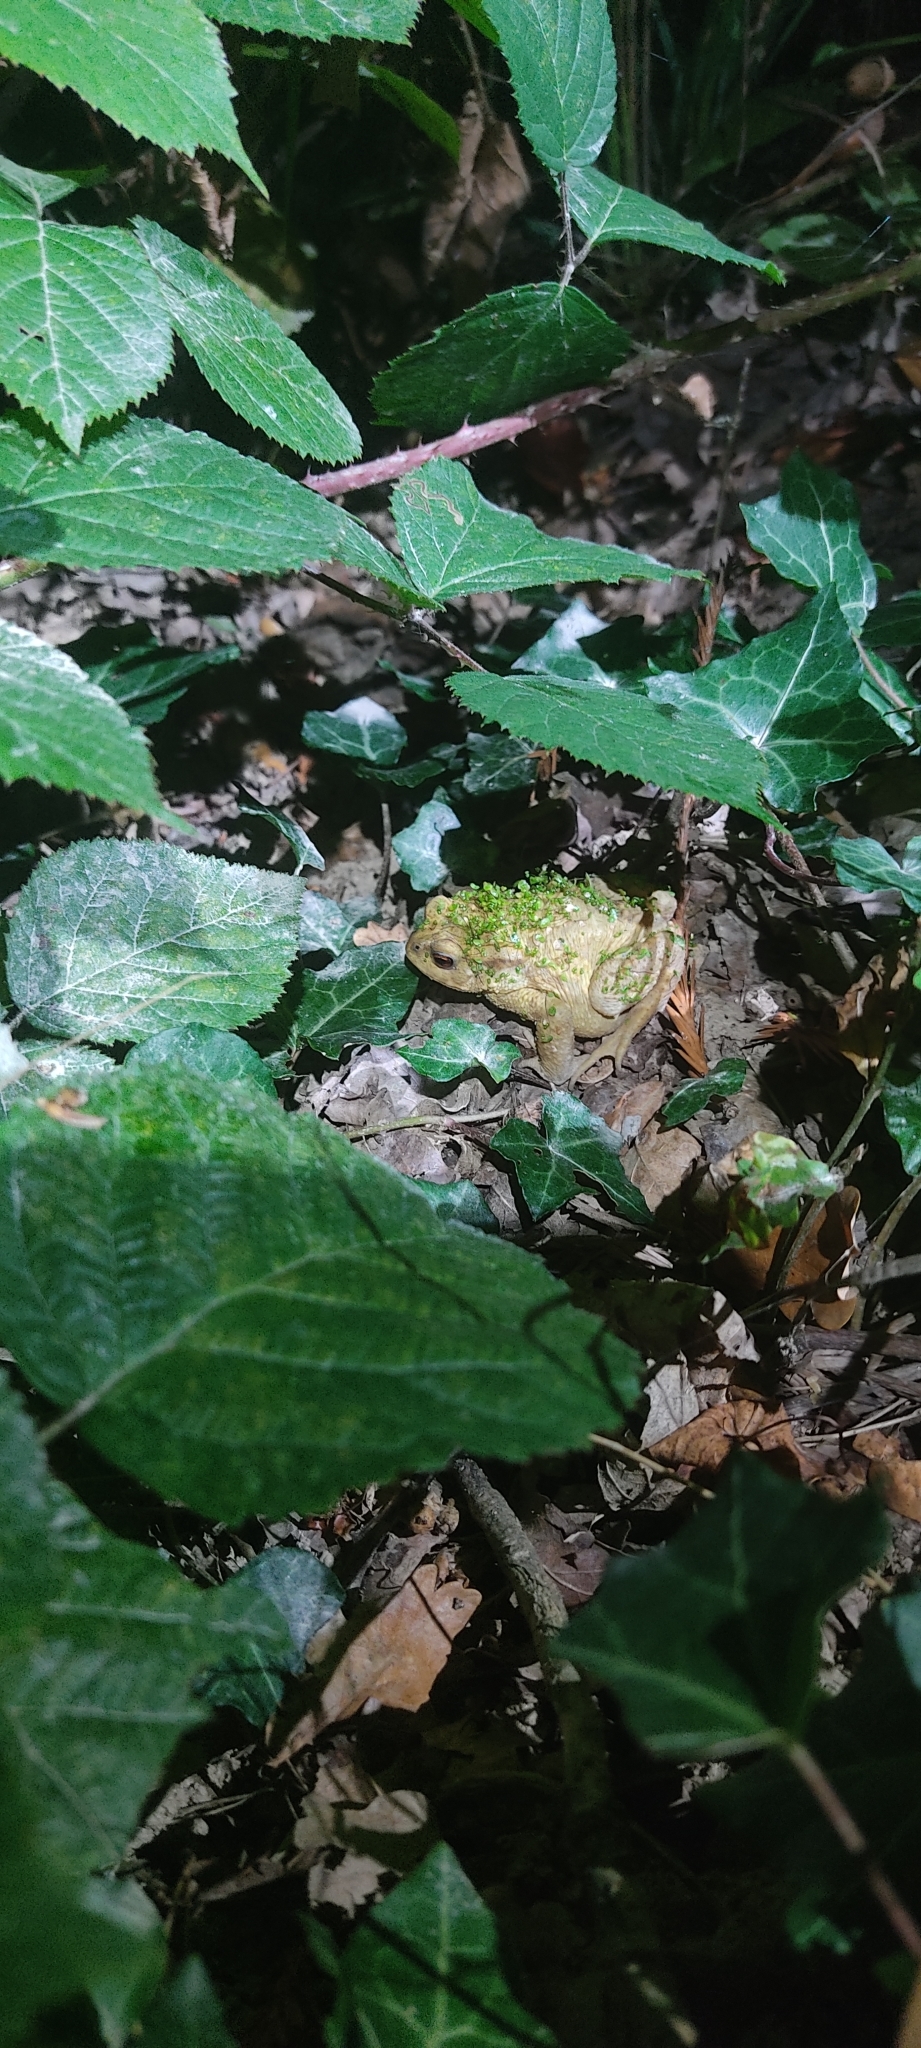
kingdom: Animalia
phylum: Chordata
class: Amphibia
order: Anura
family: Bufonidae
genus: Bufo
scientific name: Bufo spinosus
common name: Western common toad
